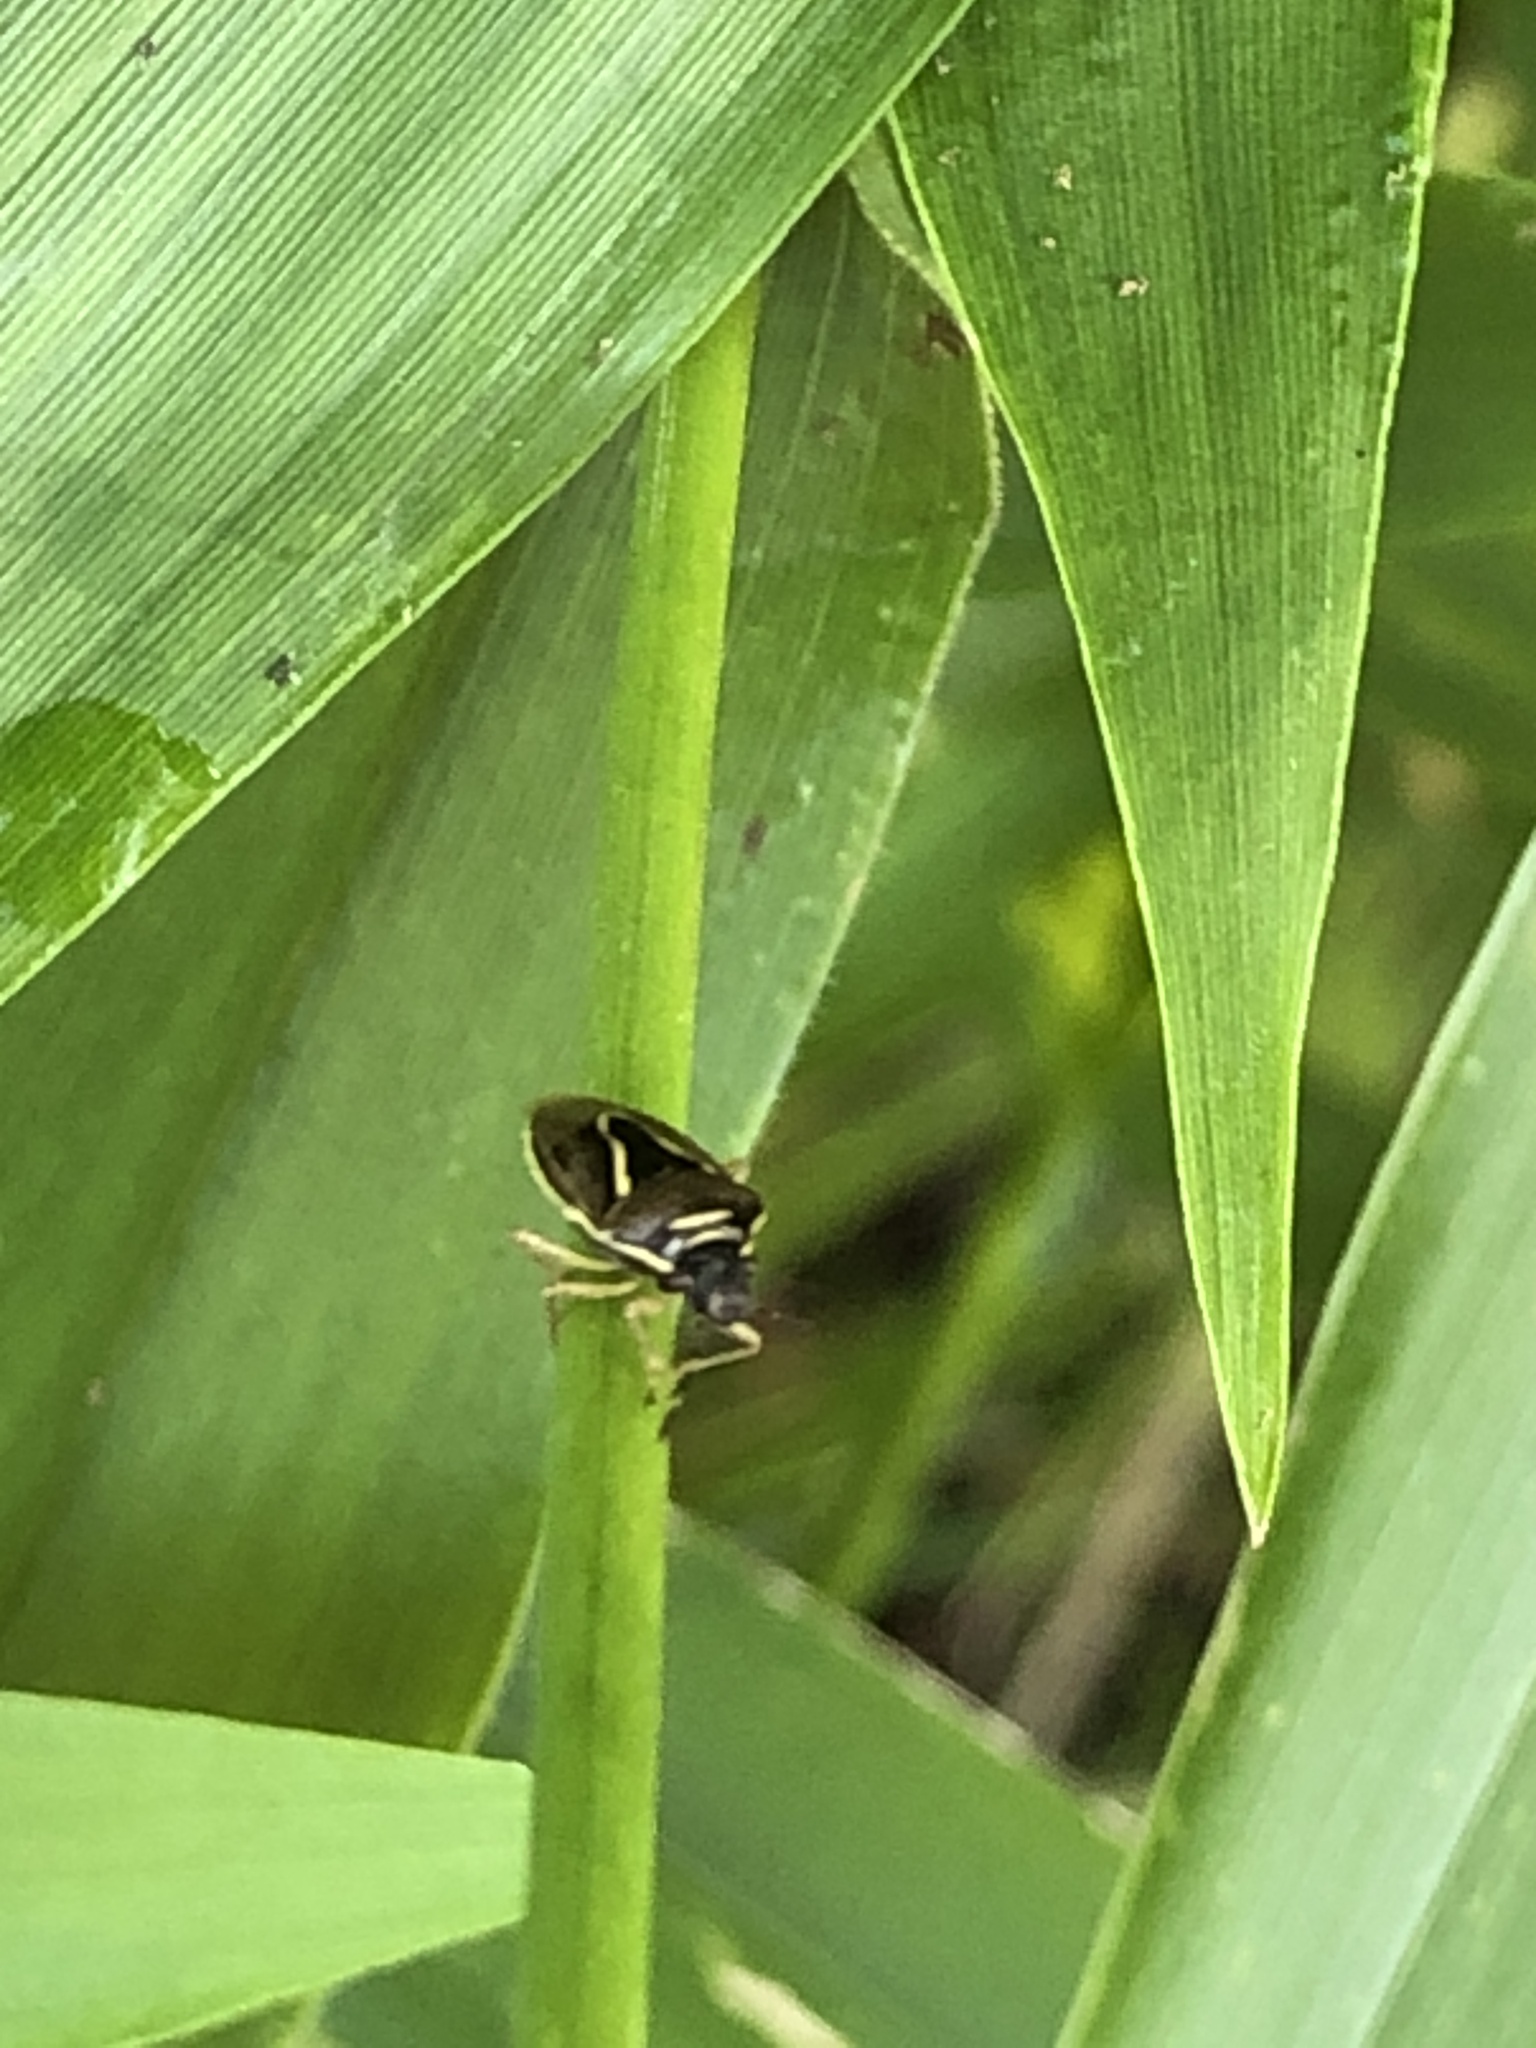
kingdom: Animalia
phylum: Arthropoda
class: Insecta
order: Hemiptera
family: Pentatomidae
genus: Mormidea
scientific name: Mormidea lugens
